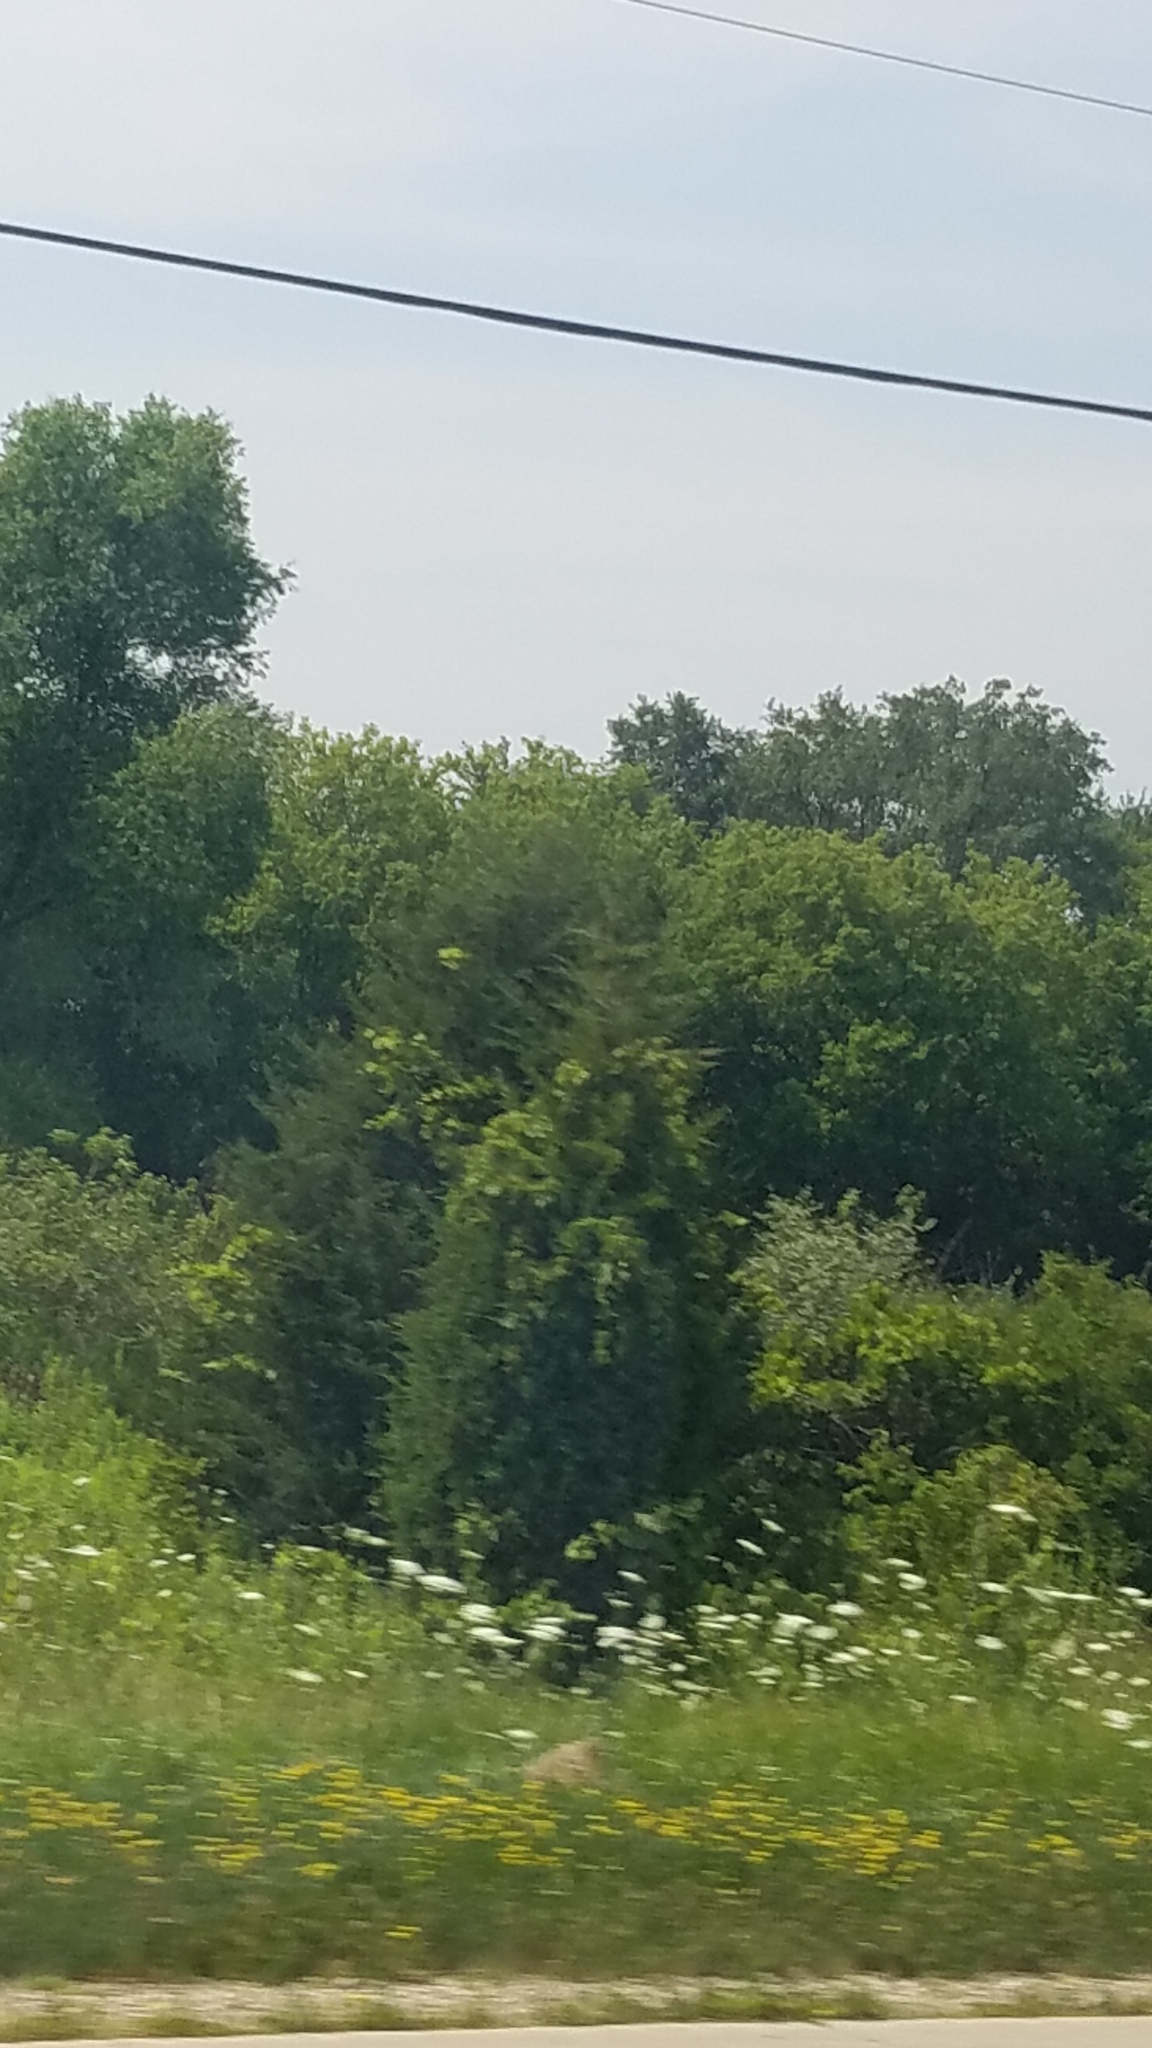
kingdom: Plantae
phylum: Tracheophyta
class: Magnoliopsida
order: Apiales
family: Apiaceae
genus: Daucus
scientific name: Daucus carota
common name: Wild carrot
